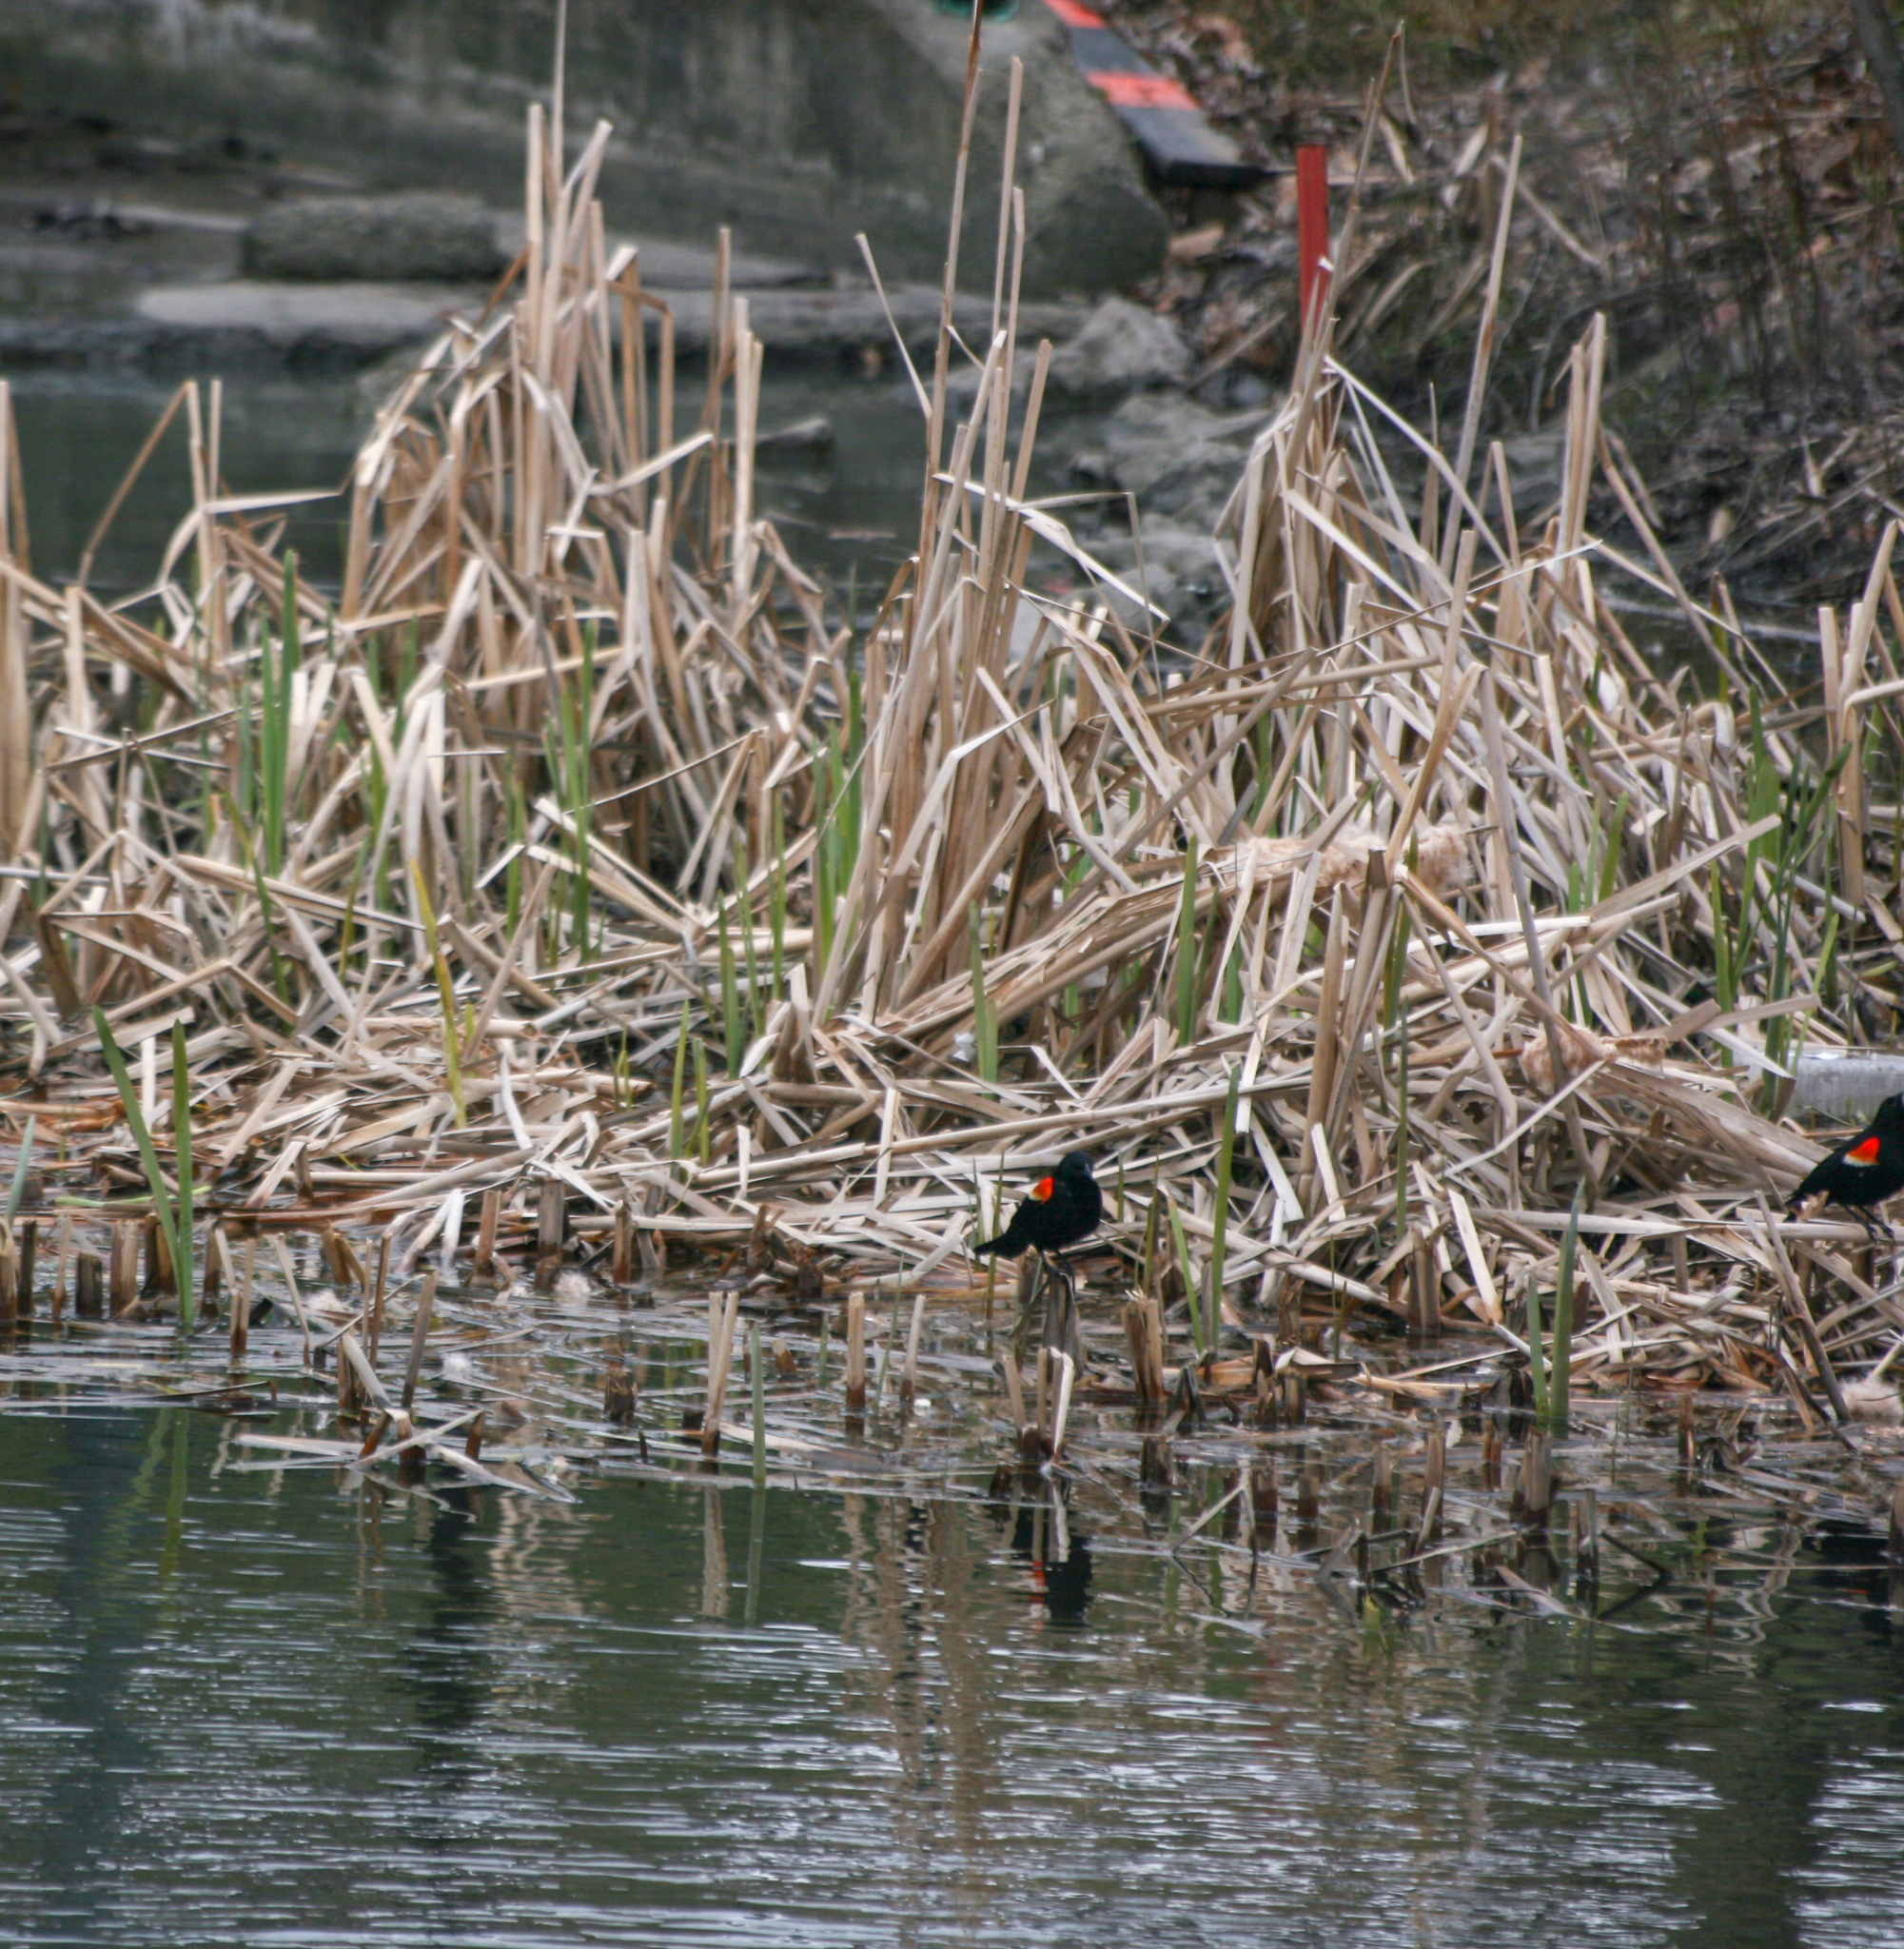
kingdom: Animalia
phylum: Chordata
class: Aves
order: Passeriformes
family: Icteridae
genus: Agelaius
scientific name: Agelaius phoeniceus
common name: Red-winged blackbird
